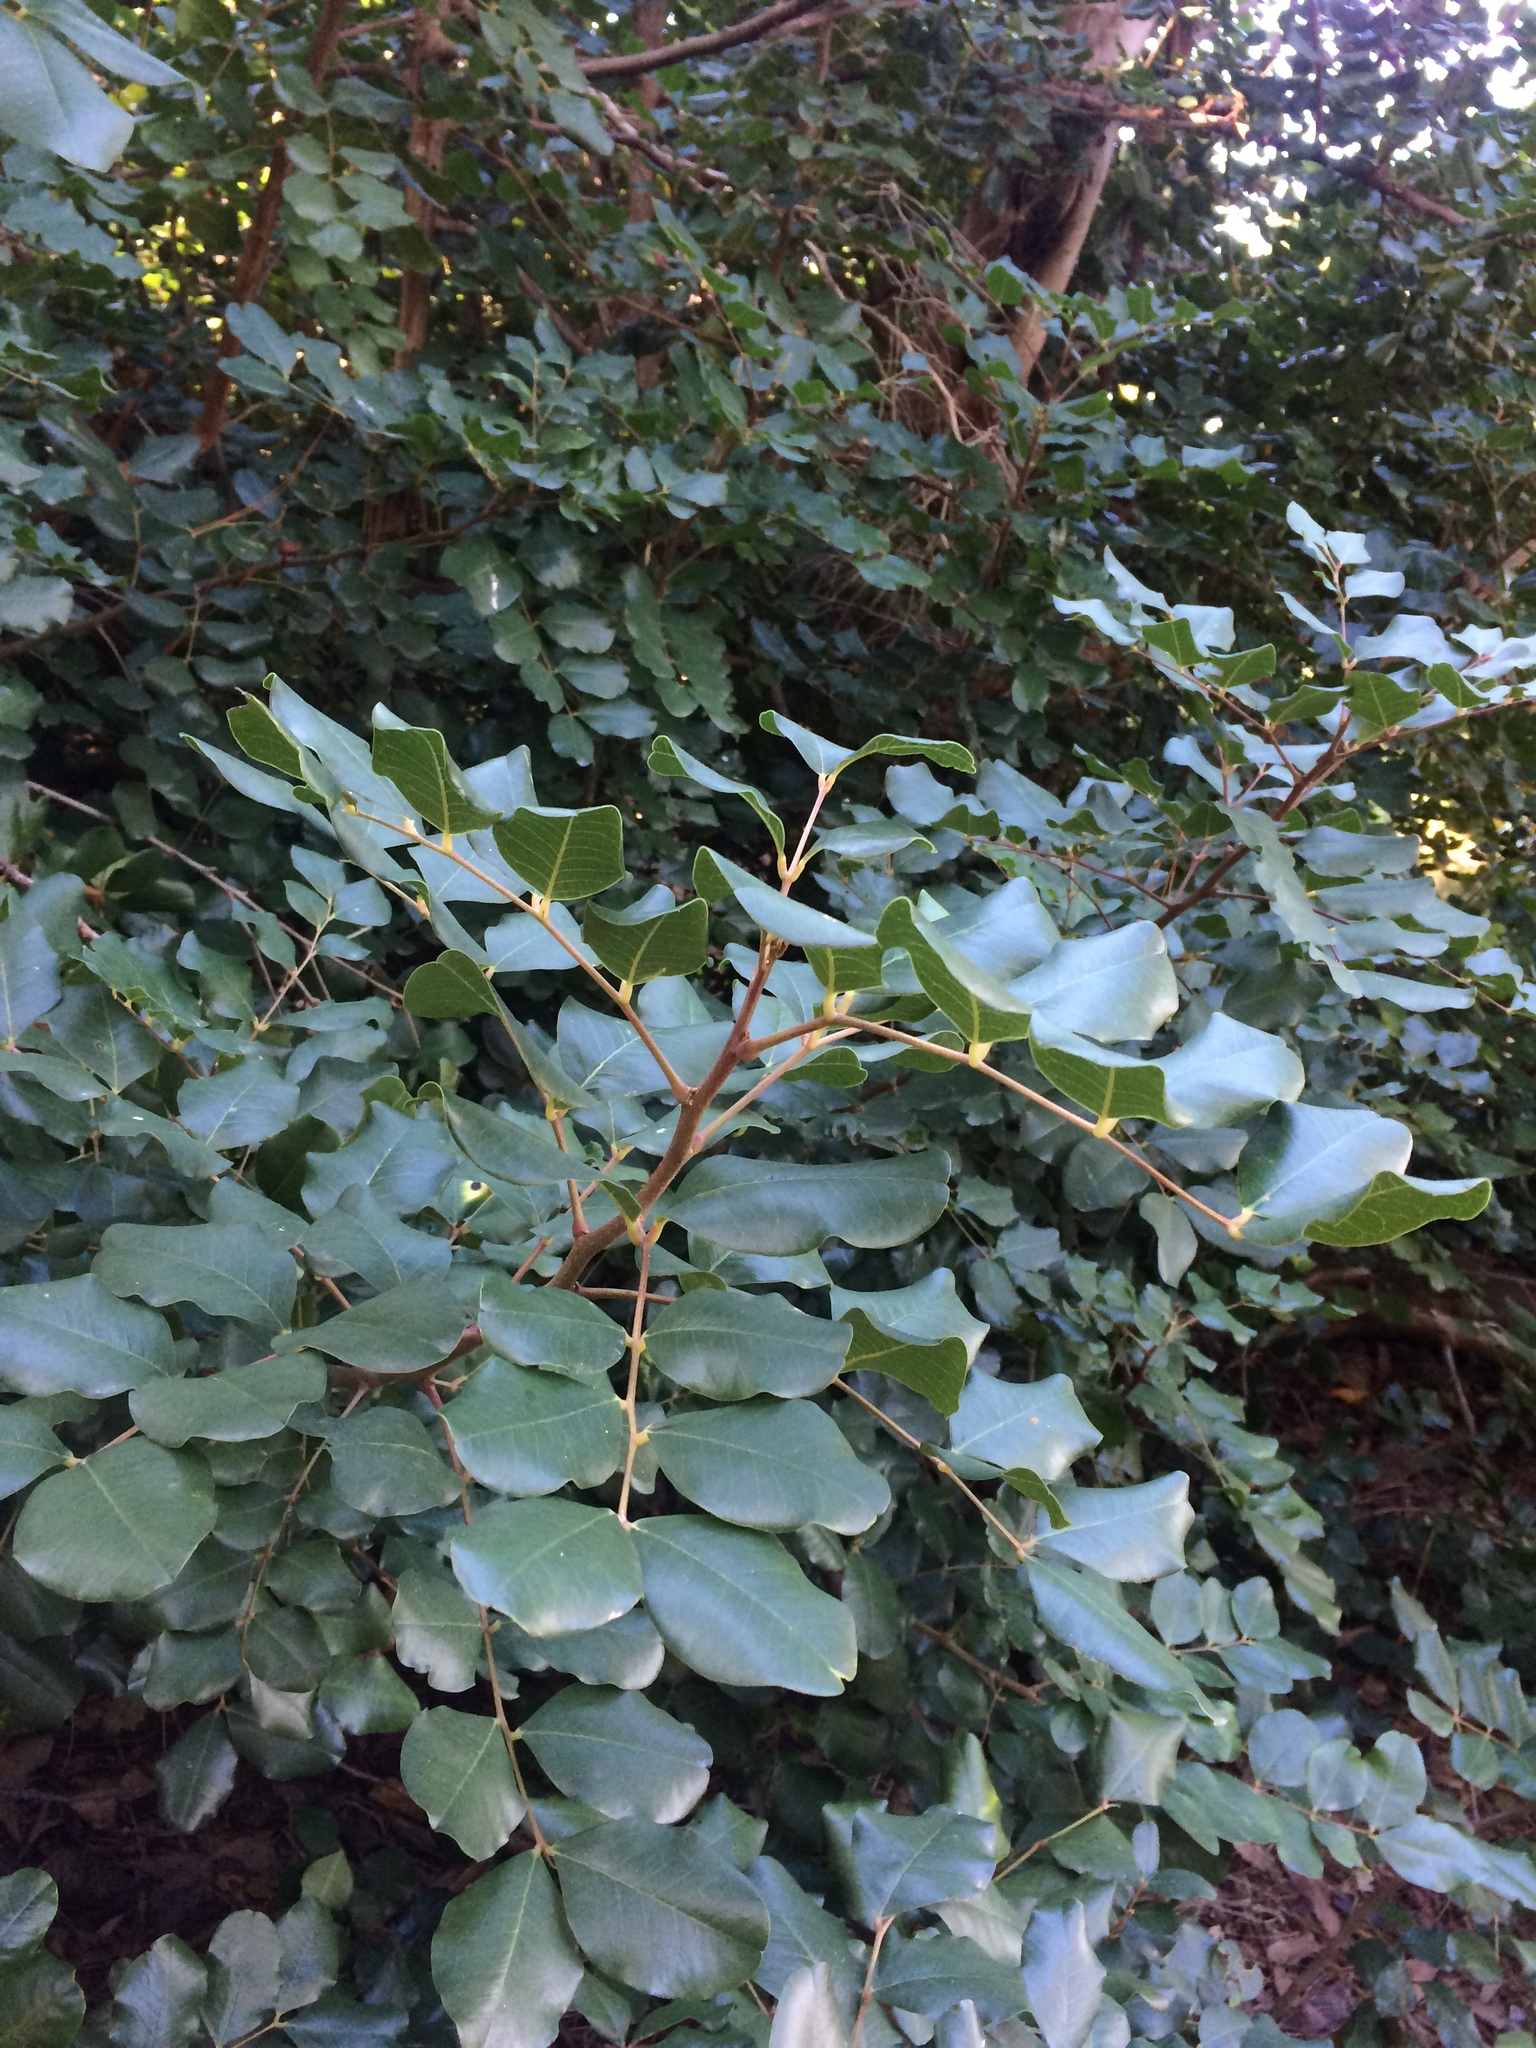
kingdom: Plantae
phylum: Tracheophyta
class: Magnoliopsida
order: Fabales
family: Fabaceae
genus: Ceratonia
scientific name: Ceratonia siliqua
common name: Carob
